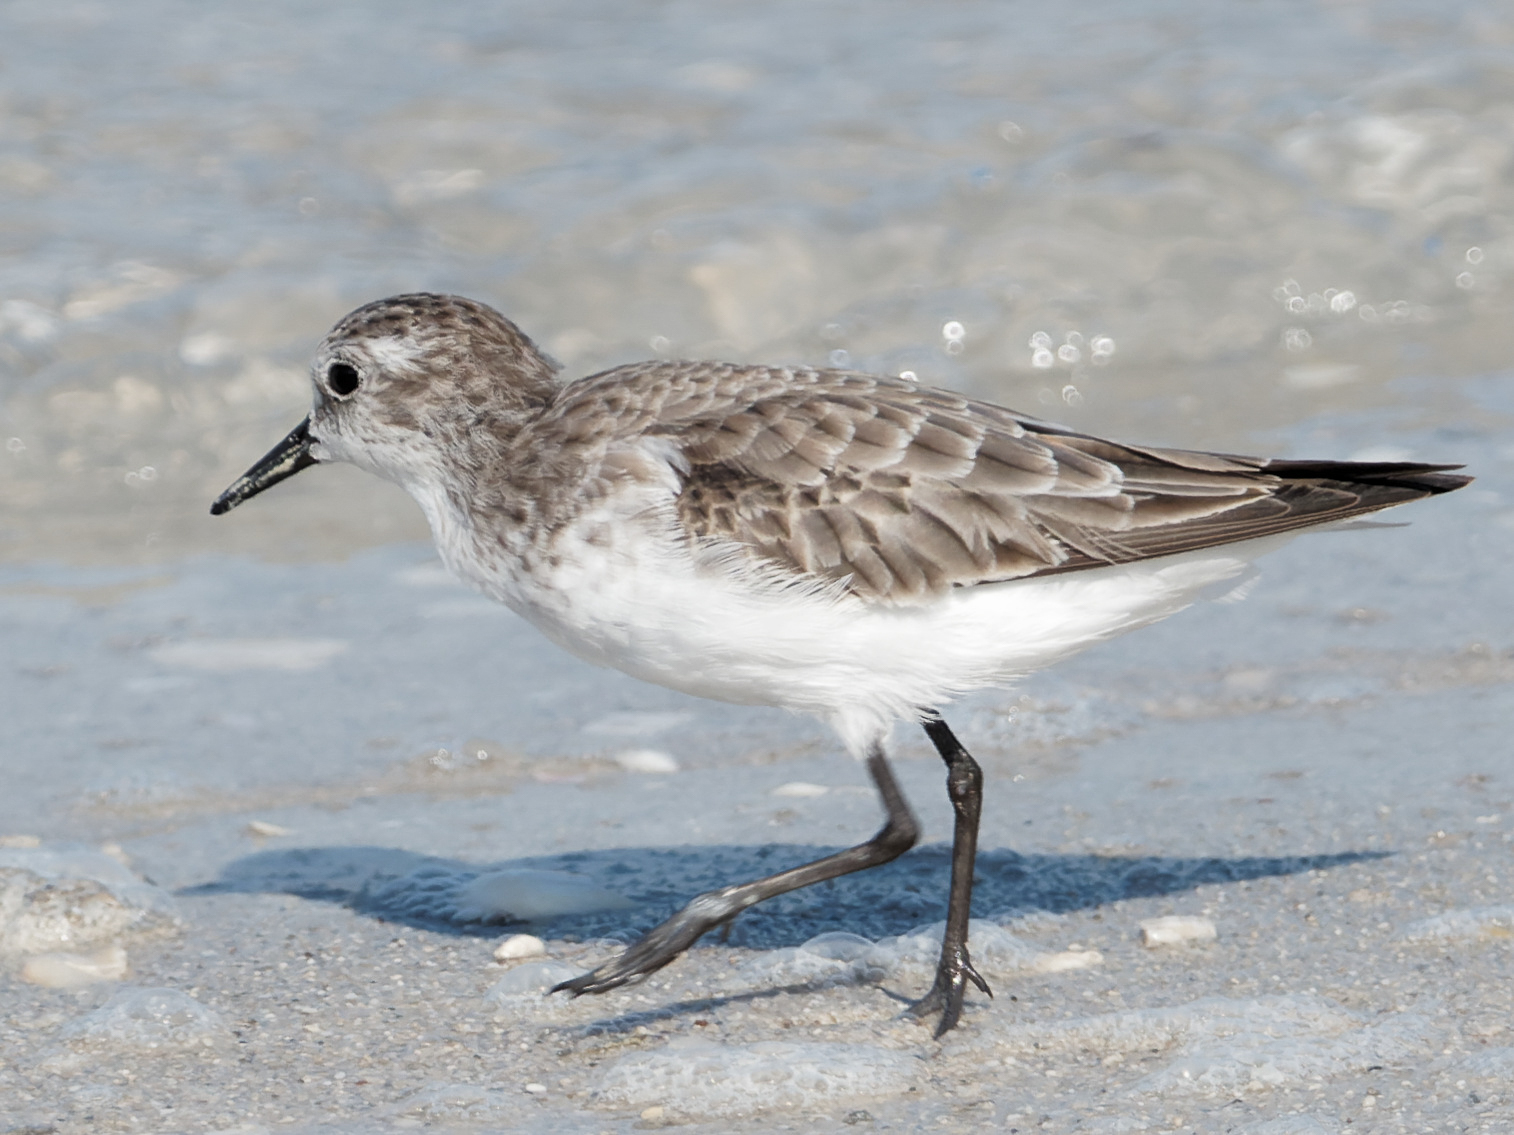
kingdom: Animalia
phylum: Chordata
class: Aves
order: Charadriiformes
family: Scolopacidae
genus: Calidris
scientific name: Calidris minuta
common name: Little stint
